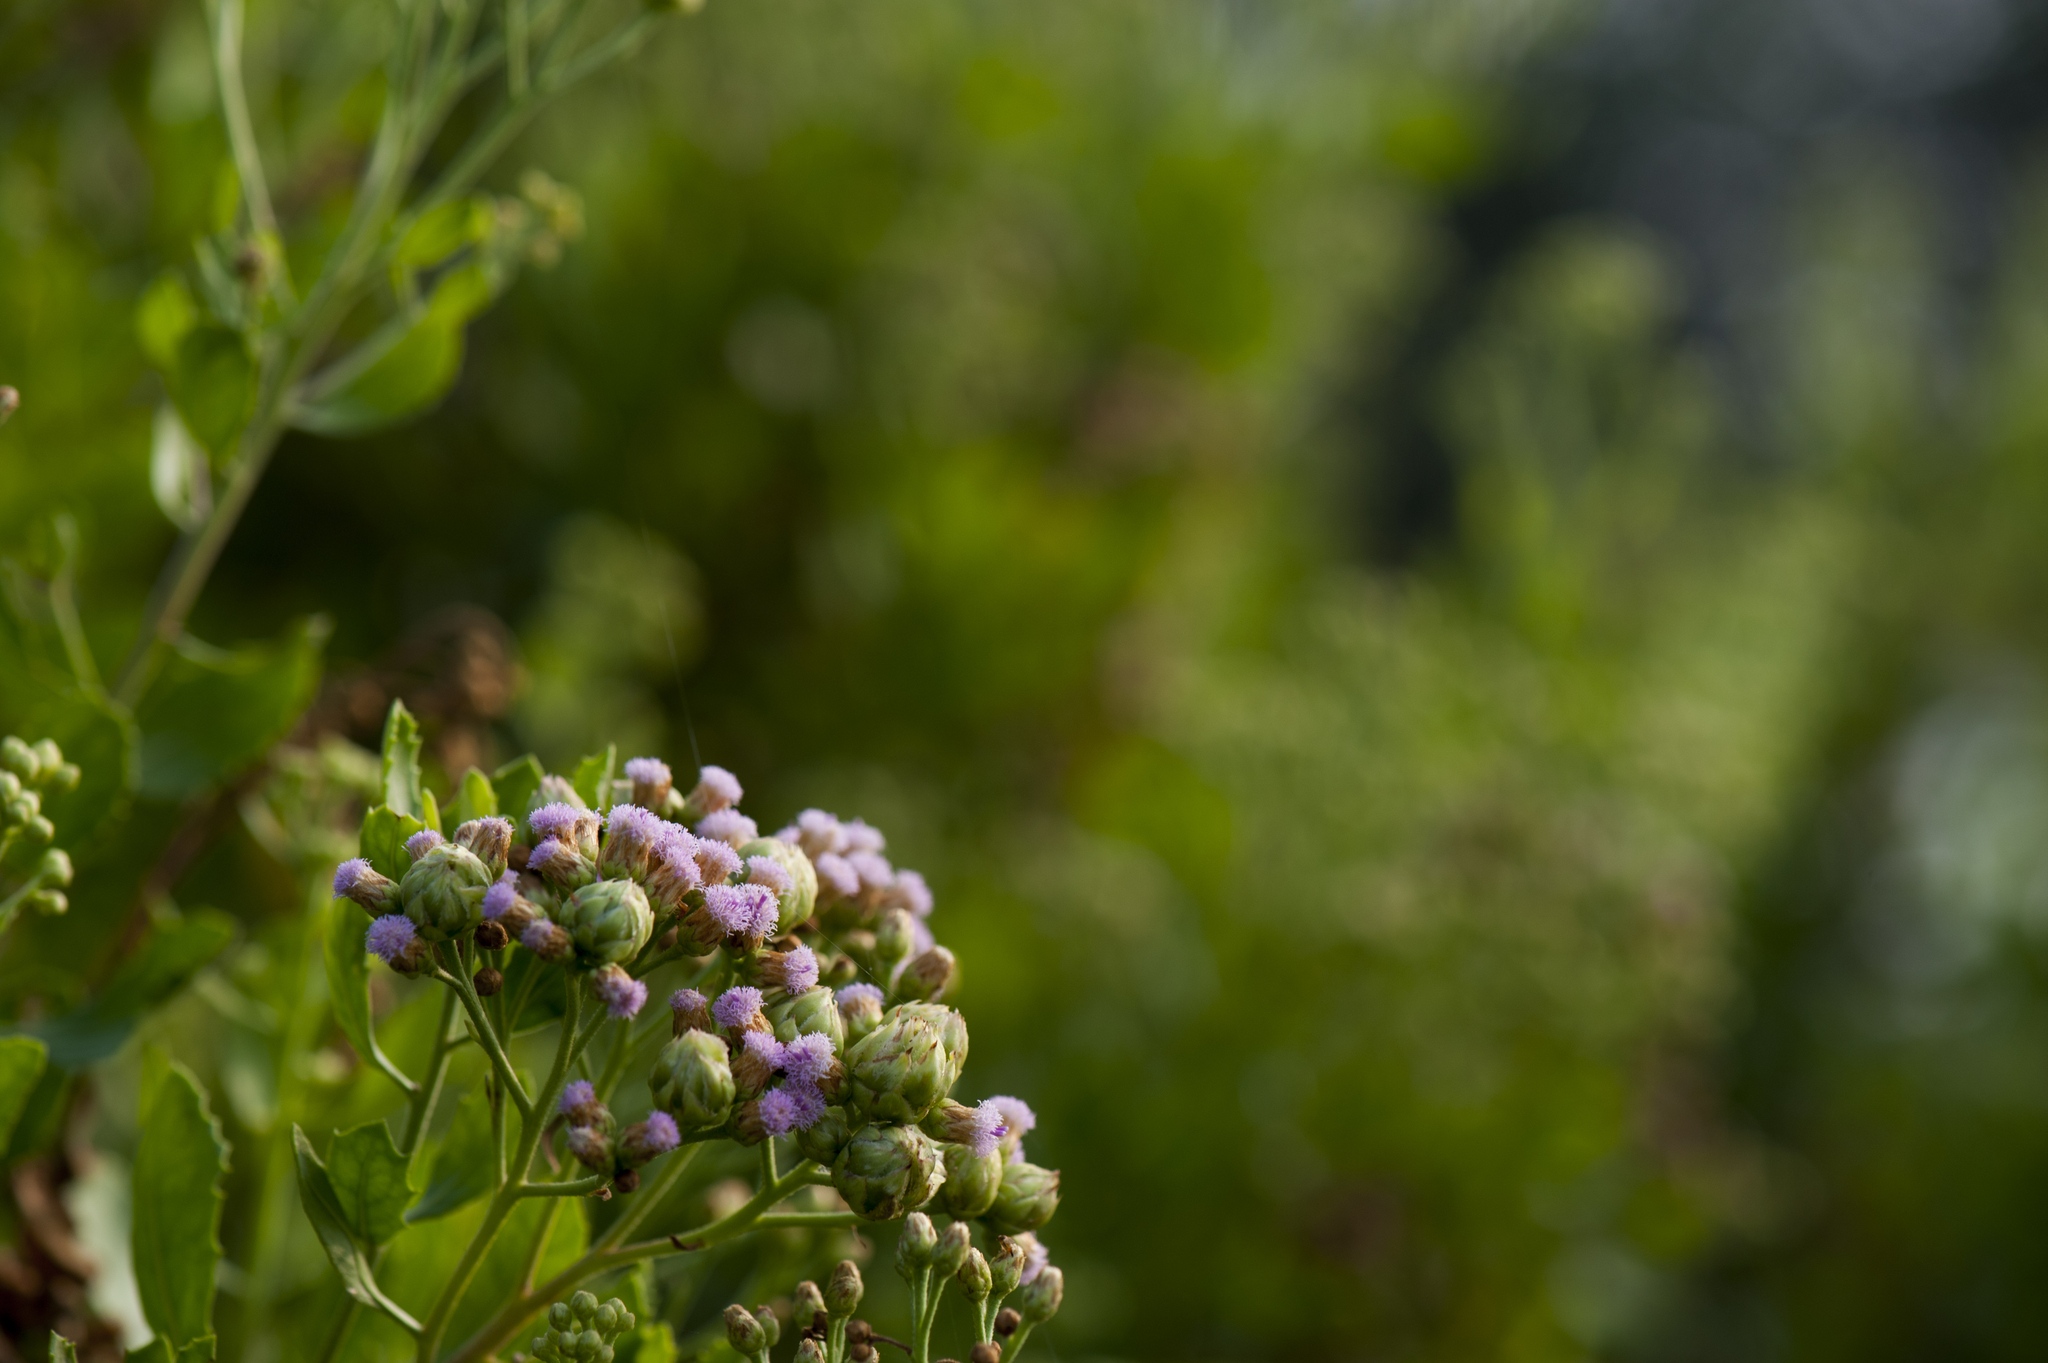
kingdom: Plantae
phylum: Tracheophyta
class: Magnoliopsida
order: Asterales
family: Asteraceae
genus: Pluchea
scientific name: Pluchea indica
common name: Indian fleabane
